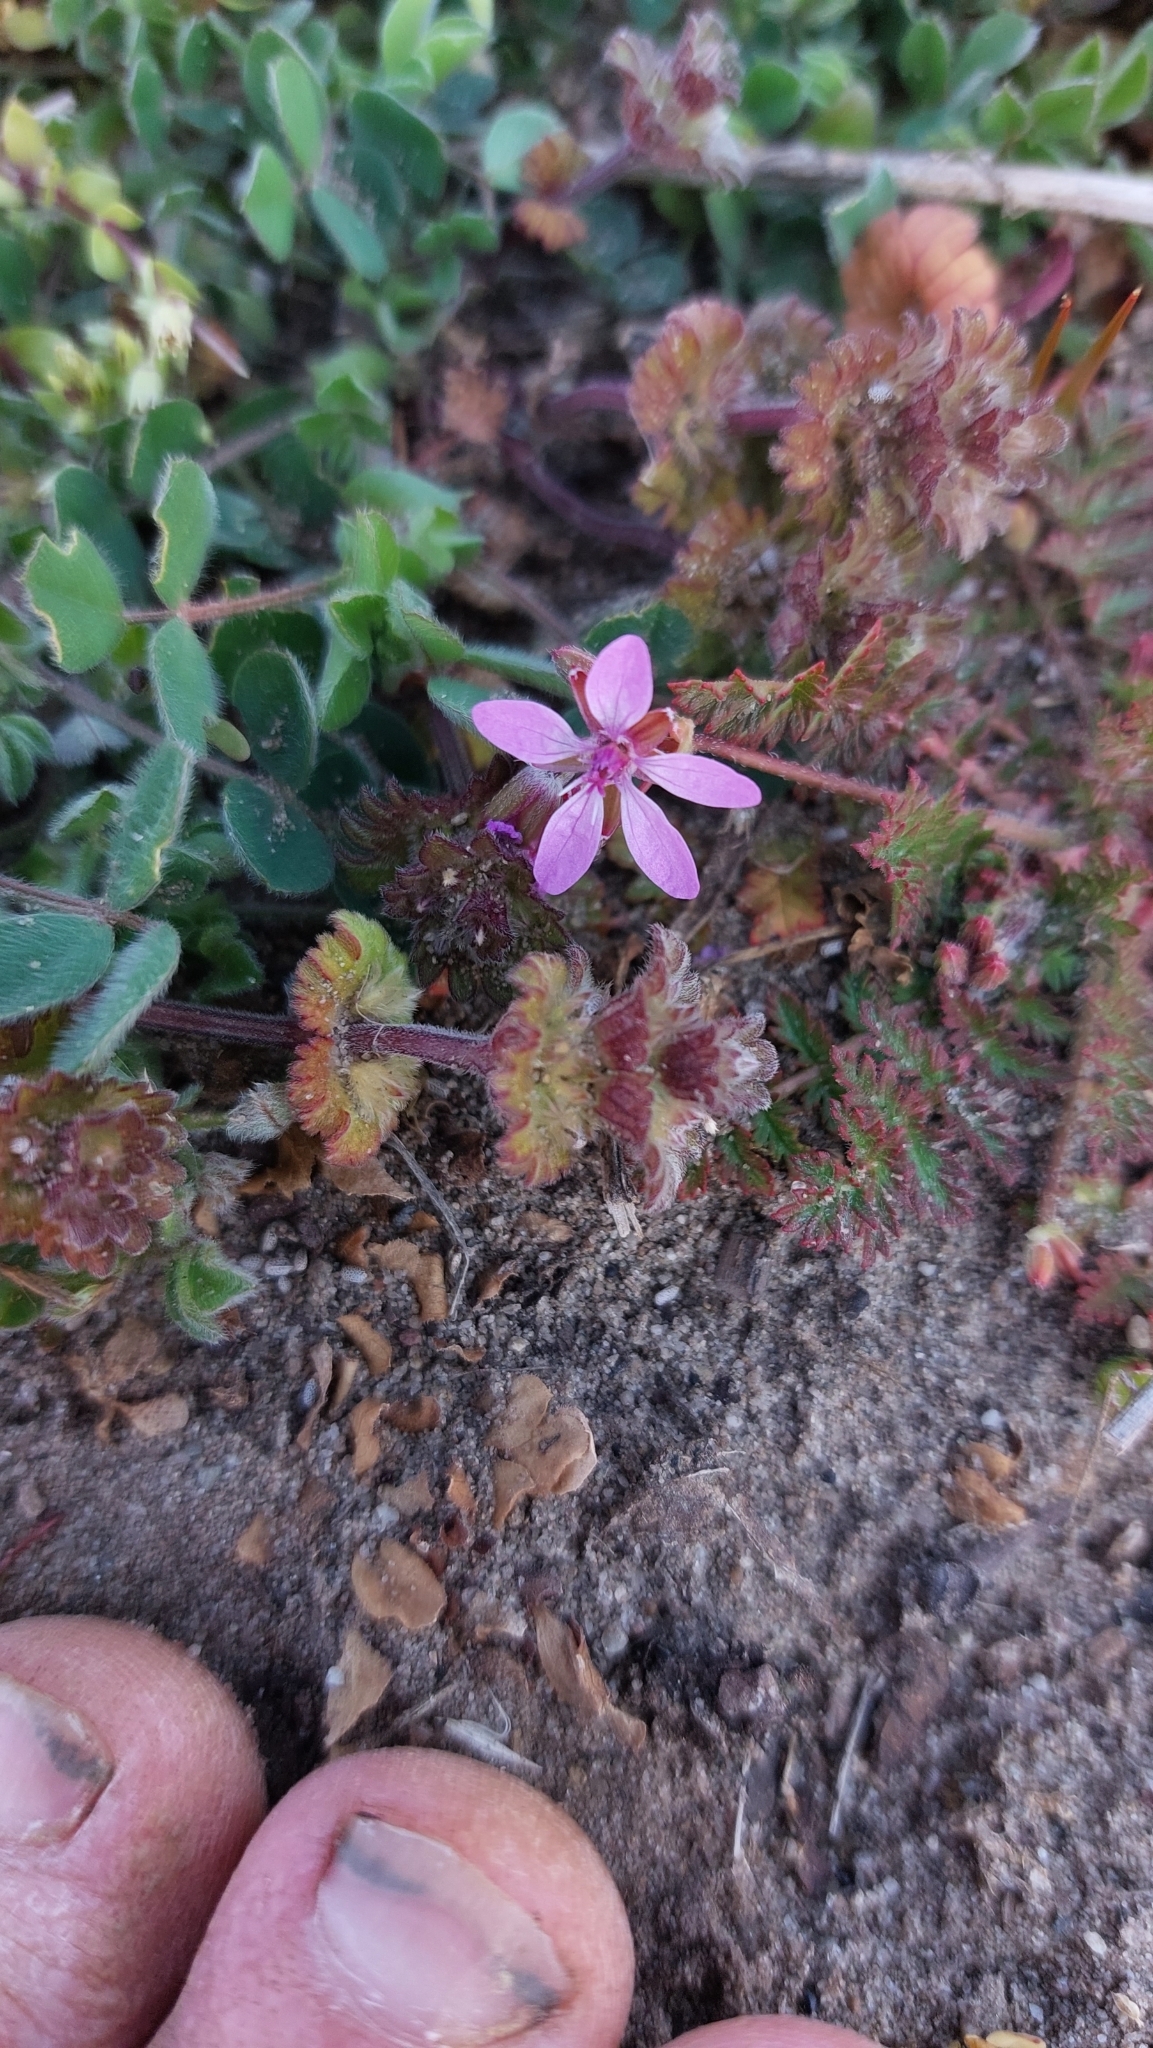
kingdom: Plantae
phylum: Tracheophyta
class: Magnoliopsida
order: Geraniales
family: Geraniaceae
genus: Erodium
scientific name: Erodium cicutarium
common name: Common stork's-bill
